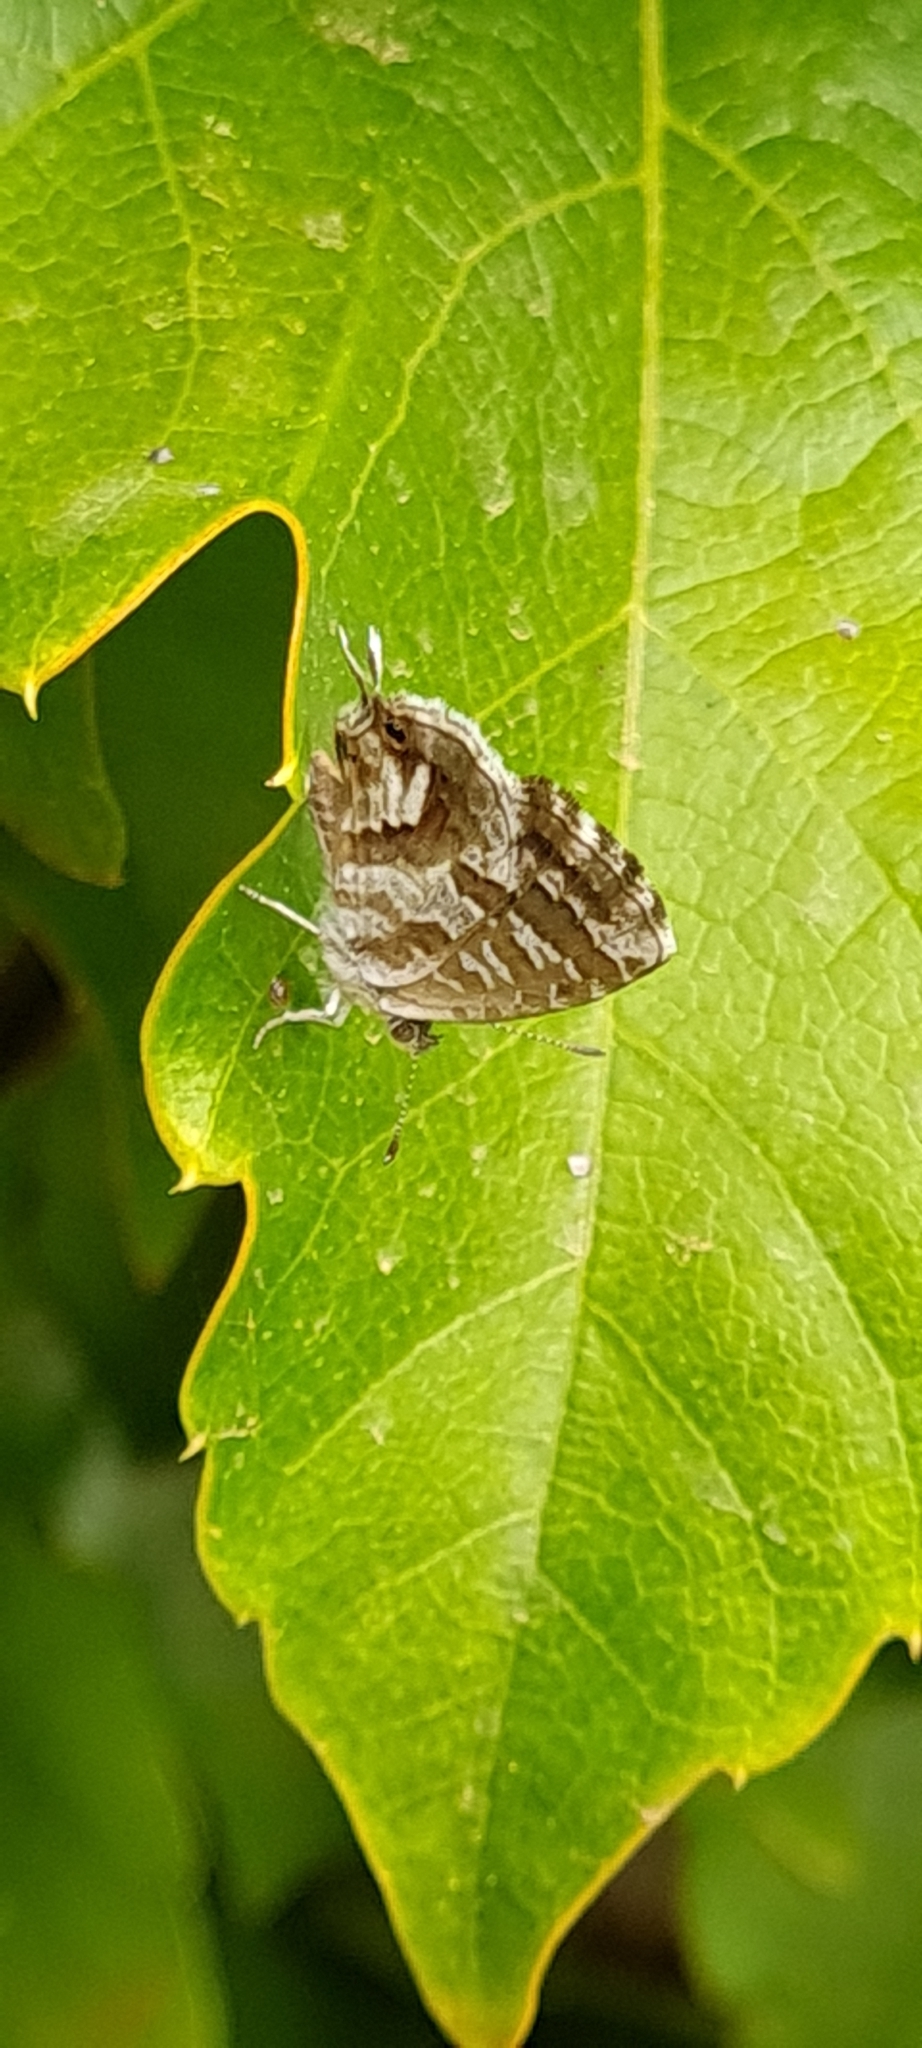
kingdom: Animalia
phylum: Arthropoda
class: Insecta
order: Lepidoptera
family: Lycaenidae
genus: Cacyreus
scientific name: Cacyreus marshalli
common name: Geranium bronze
